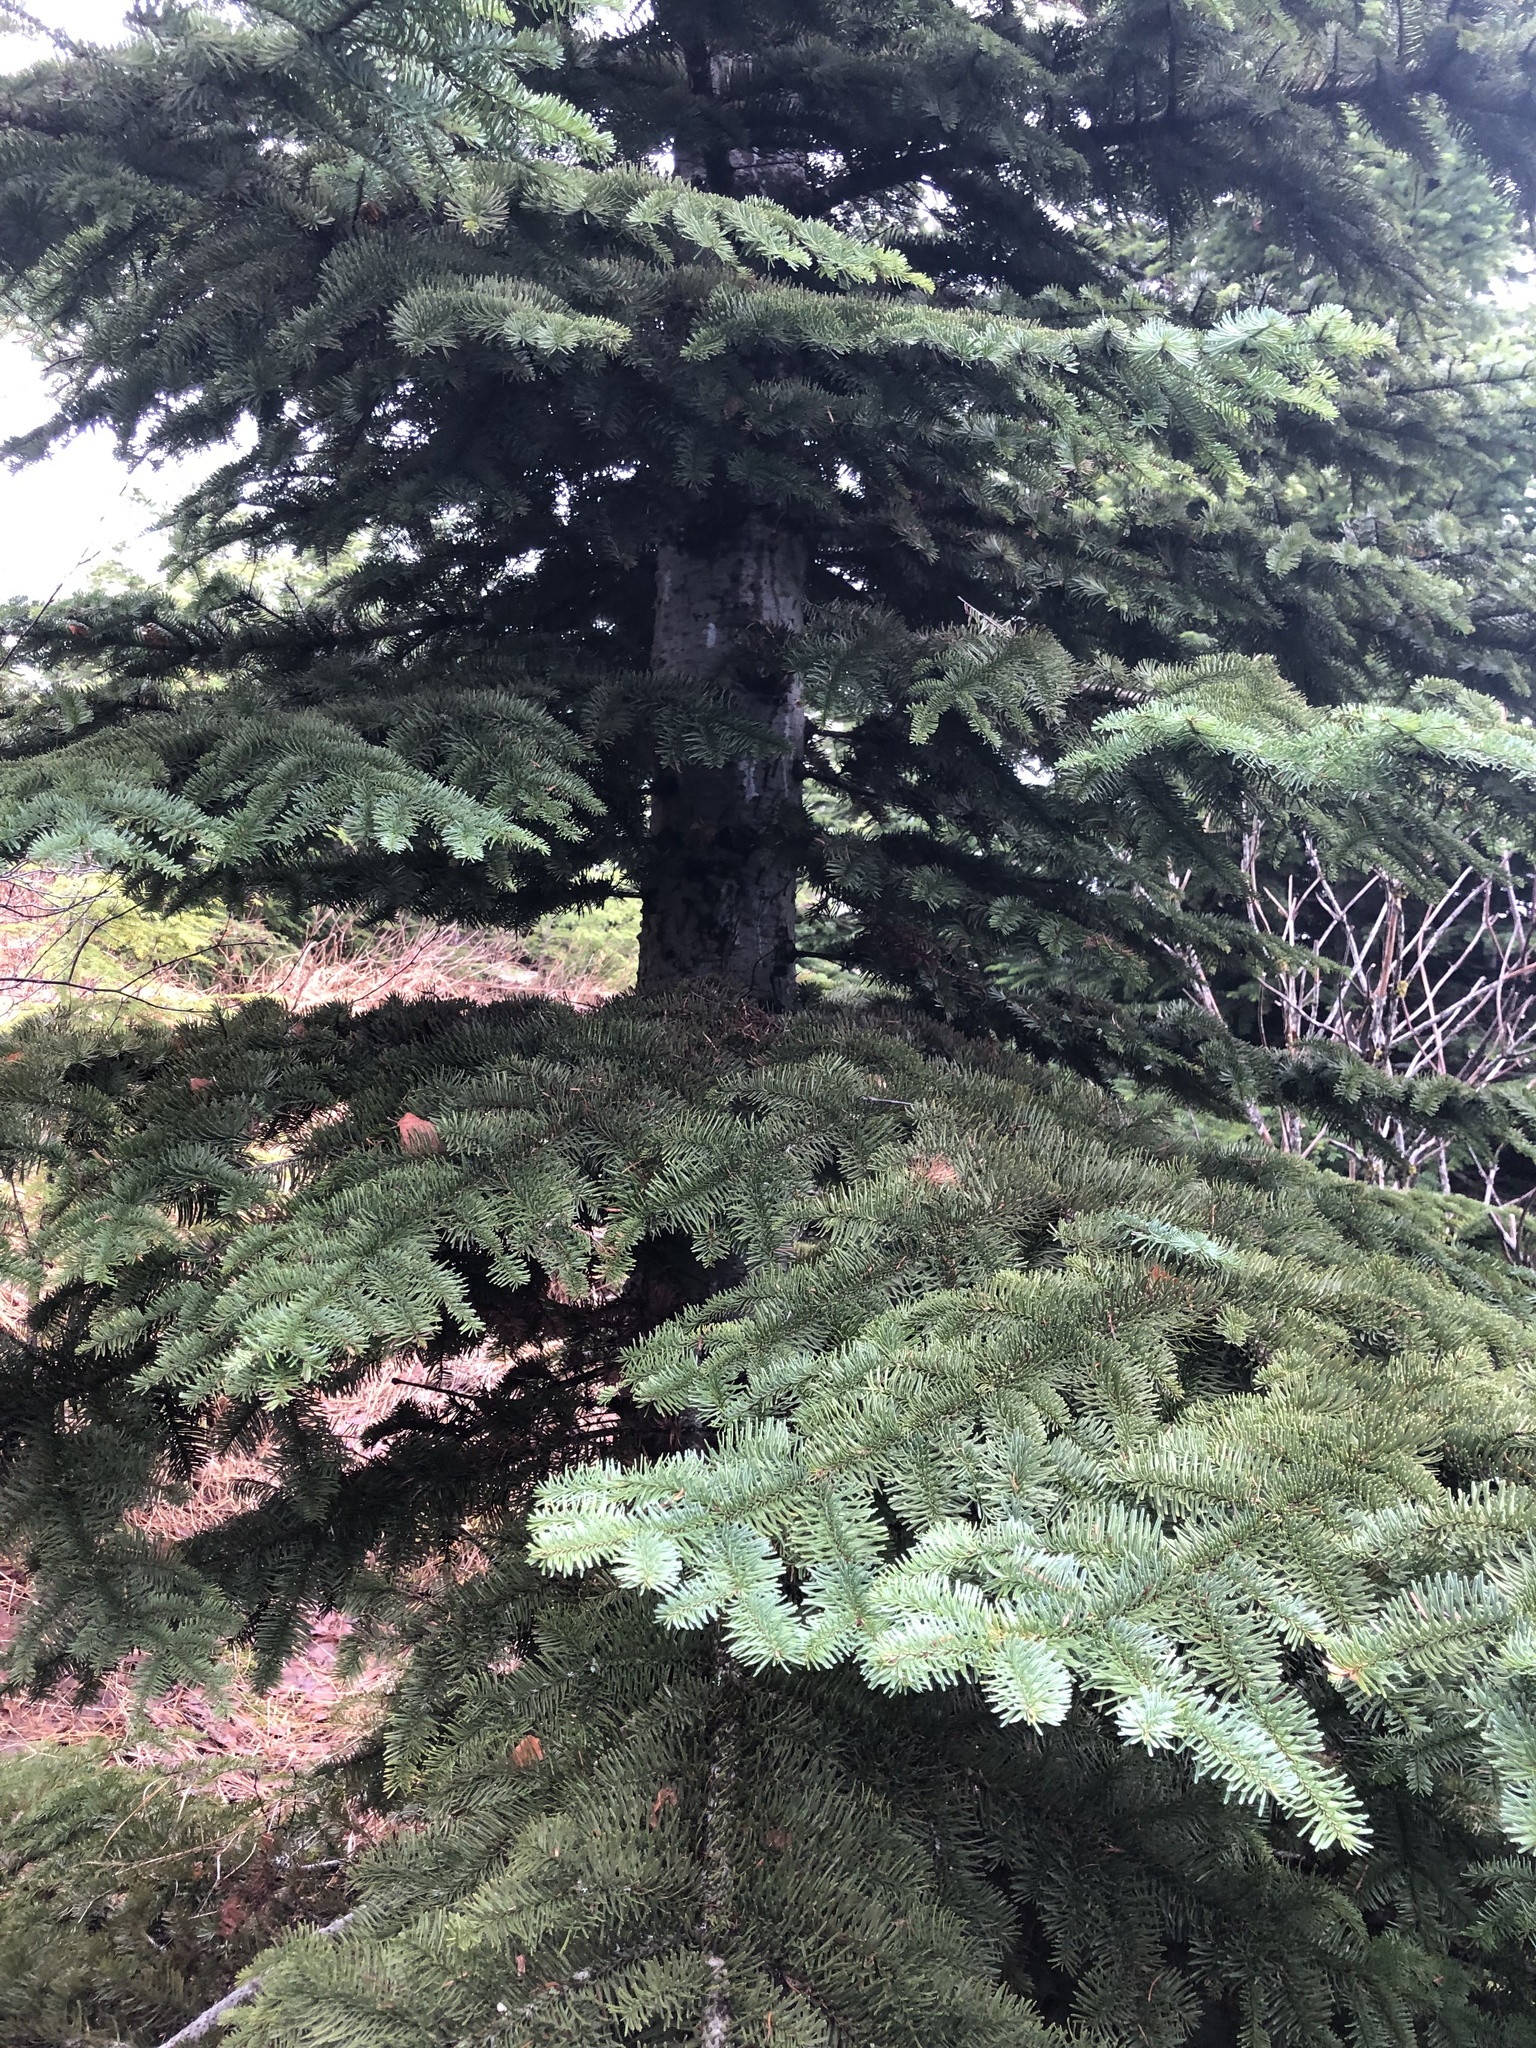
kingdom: Plantae
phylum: Tracheophyta
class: Pinopsida
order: Pinales
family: Pinaceae
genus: Abies
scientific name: Abies procera
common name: Noble fir
